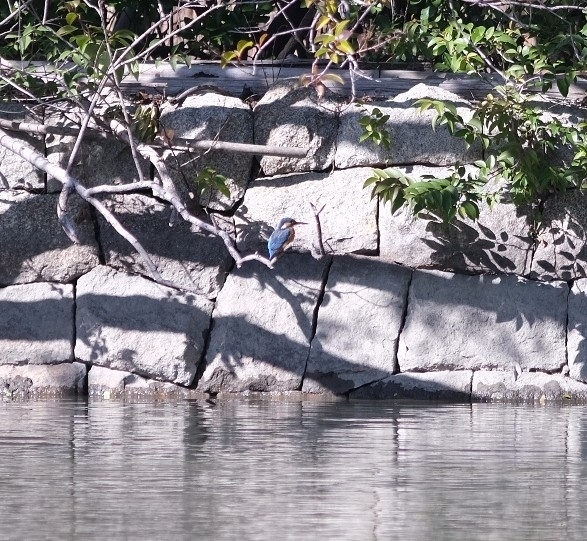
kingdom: Animalia
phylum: Chordata
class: Aves
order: Coraciiformes
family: Alcedinidae
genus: Alcedo
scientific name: Alcedo atthis
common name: Common kingfisher
